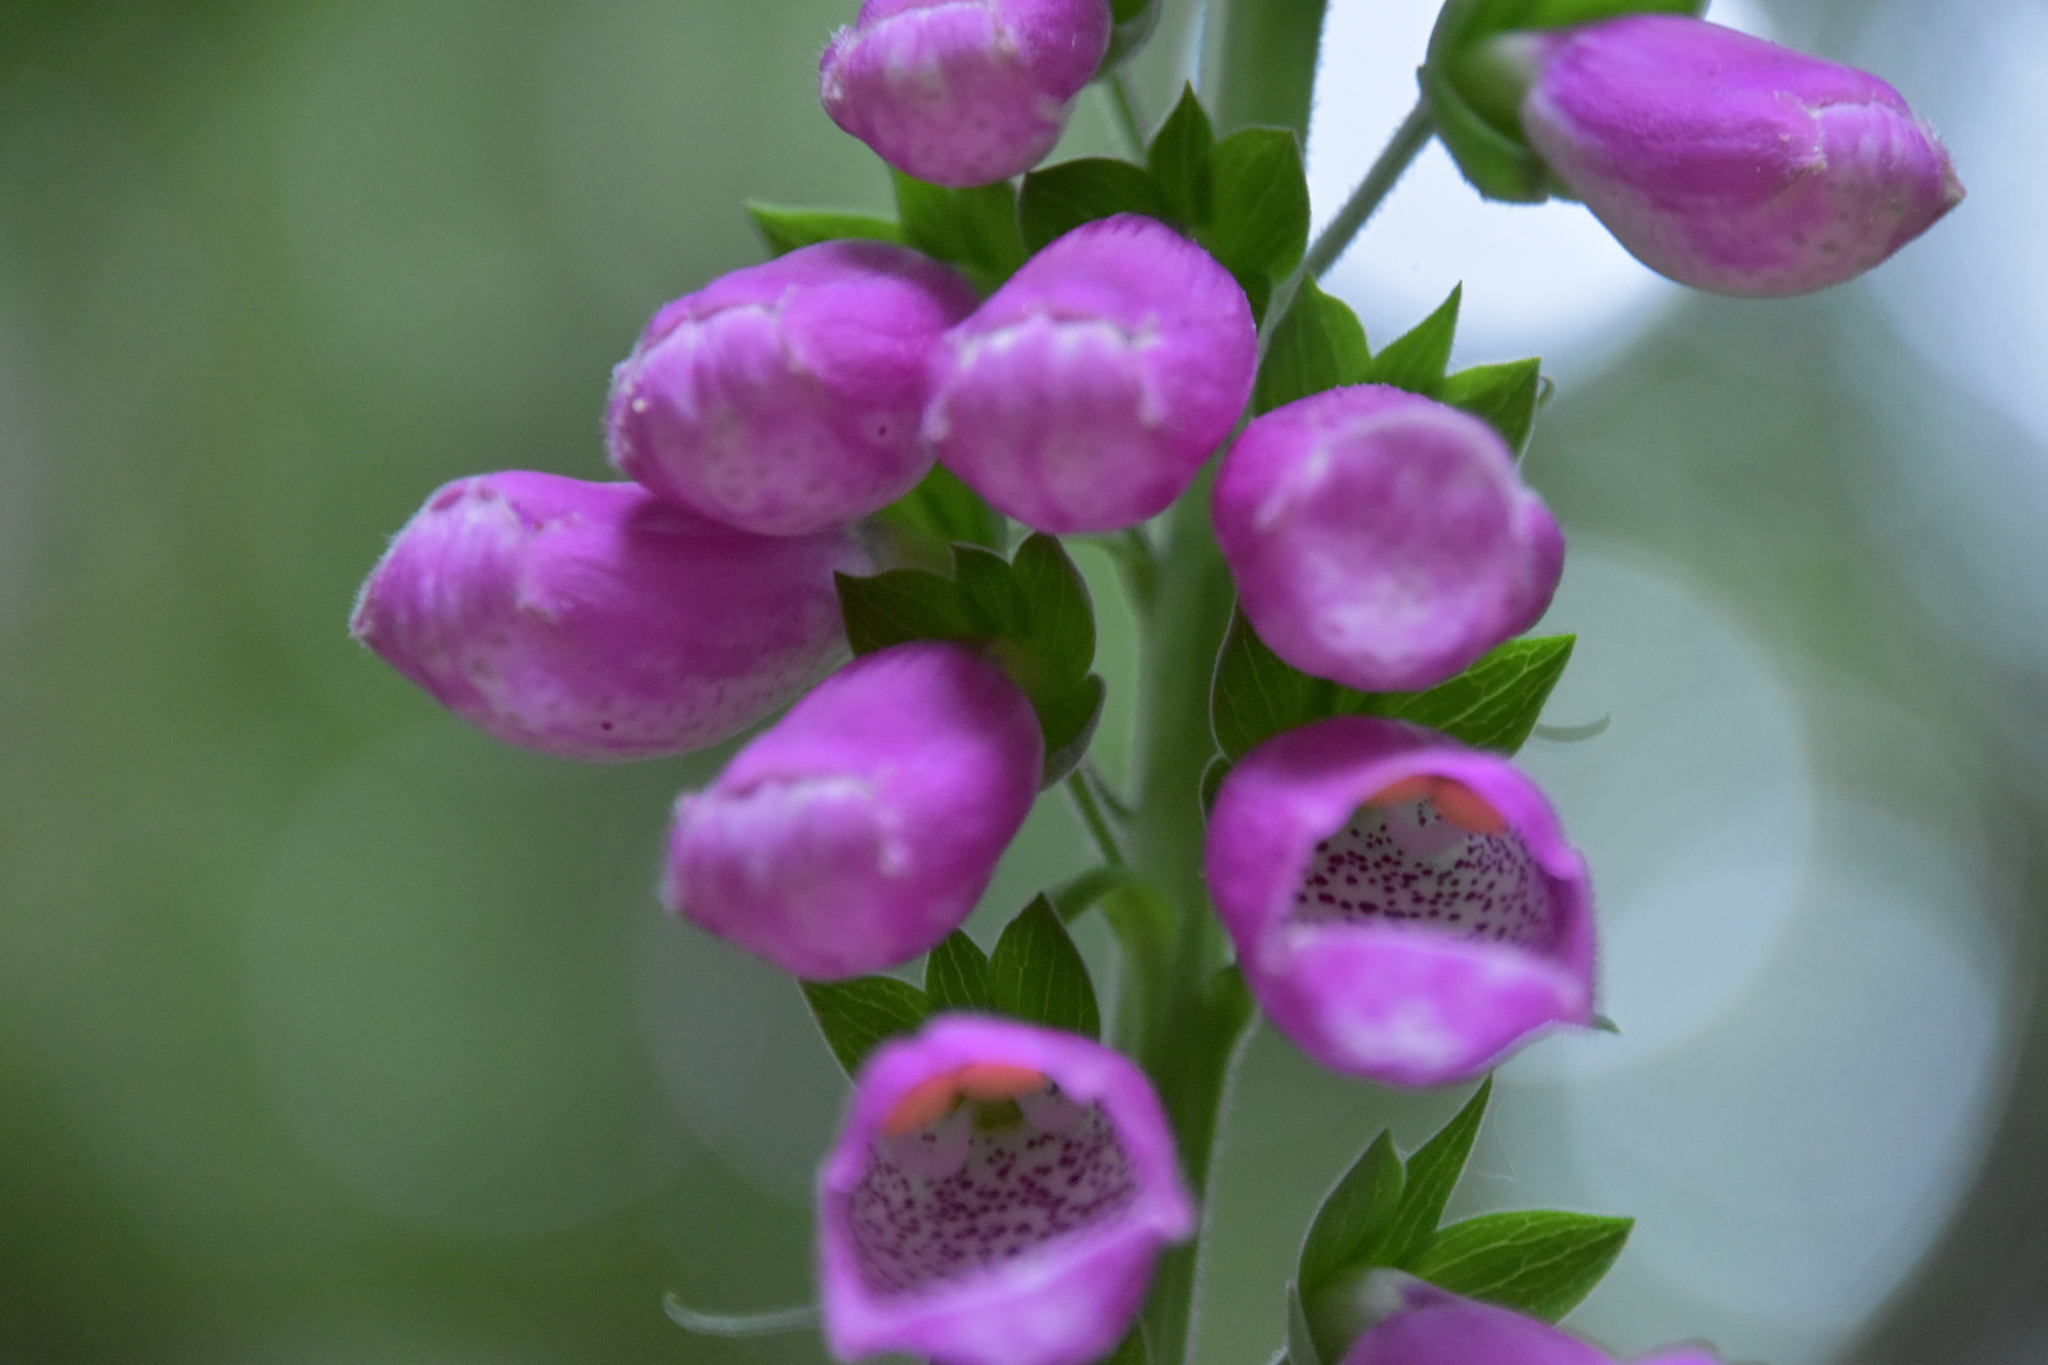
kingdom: Plantae
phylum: Tracheophyta
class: Magnoliopsida
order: Lamiales
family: Plantaginaceae
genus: Digitalis
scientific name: Digitalis purpurea
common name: Foxglove
